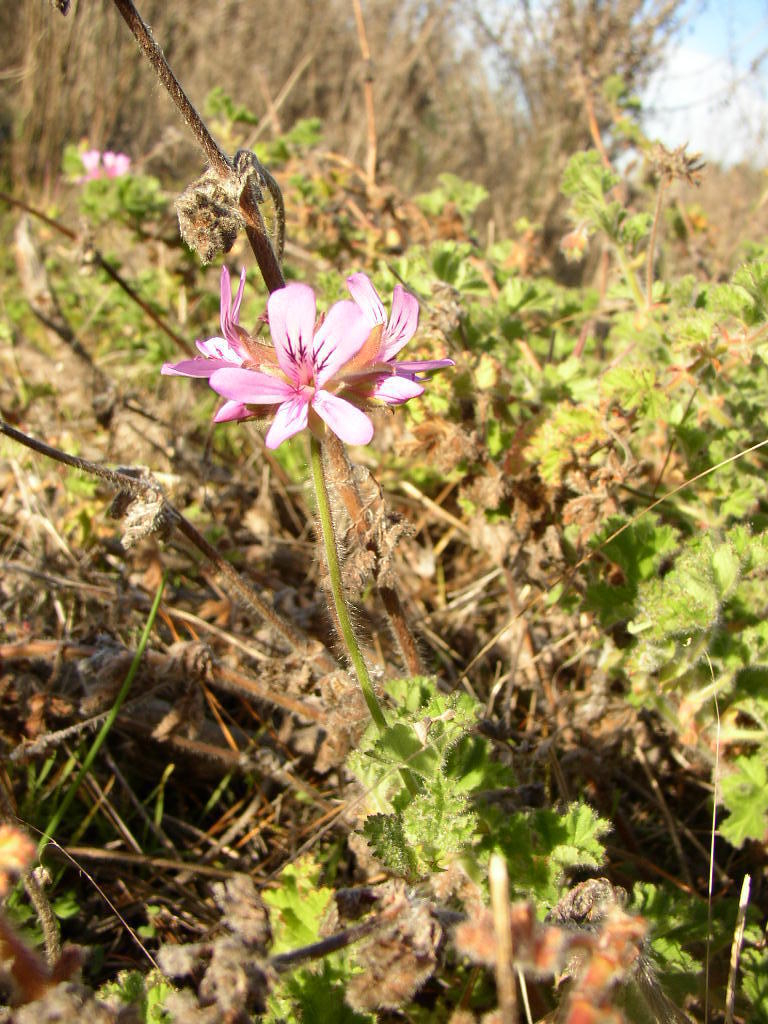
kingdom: Plantae
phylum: Tracheophyta
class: Magnoliopsida
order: Geraniales
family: Geraniaceae
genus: Pelargonium
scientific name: Pelargonium capitatum
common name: Rose scented geranium
